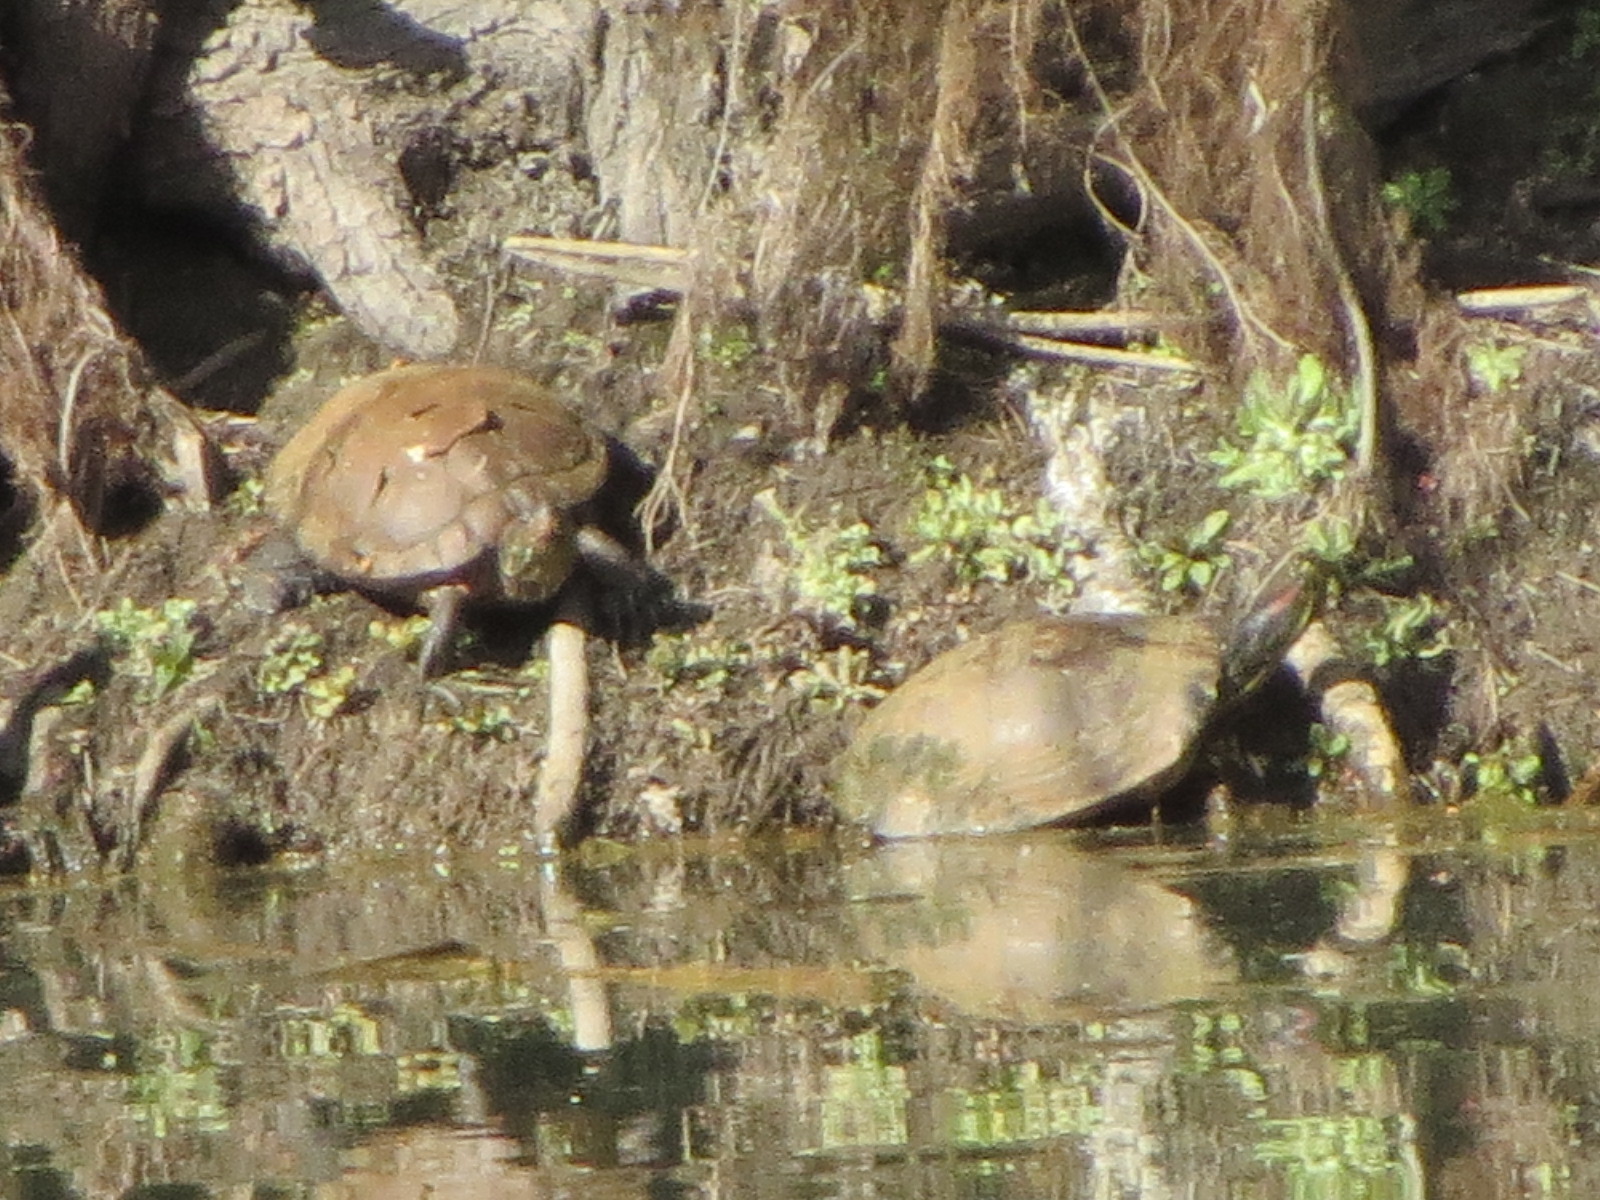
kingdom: Animalia
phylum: Chordata
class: Testudines
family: Emydidae
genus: Trachemys
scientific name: Trachemys scripta
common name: Slider
